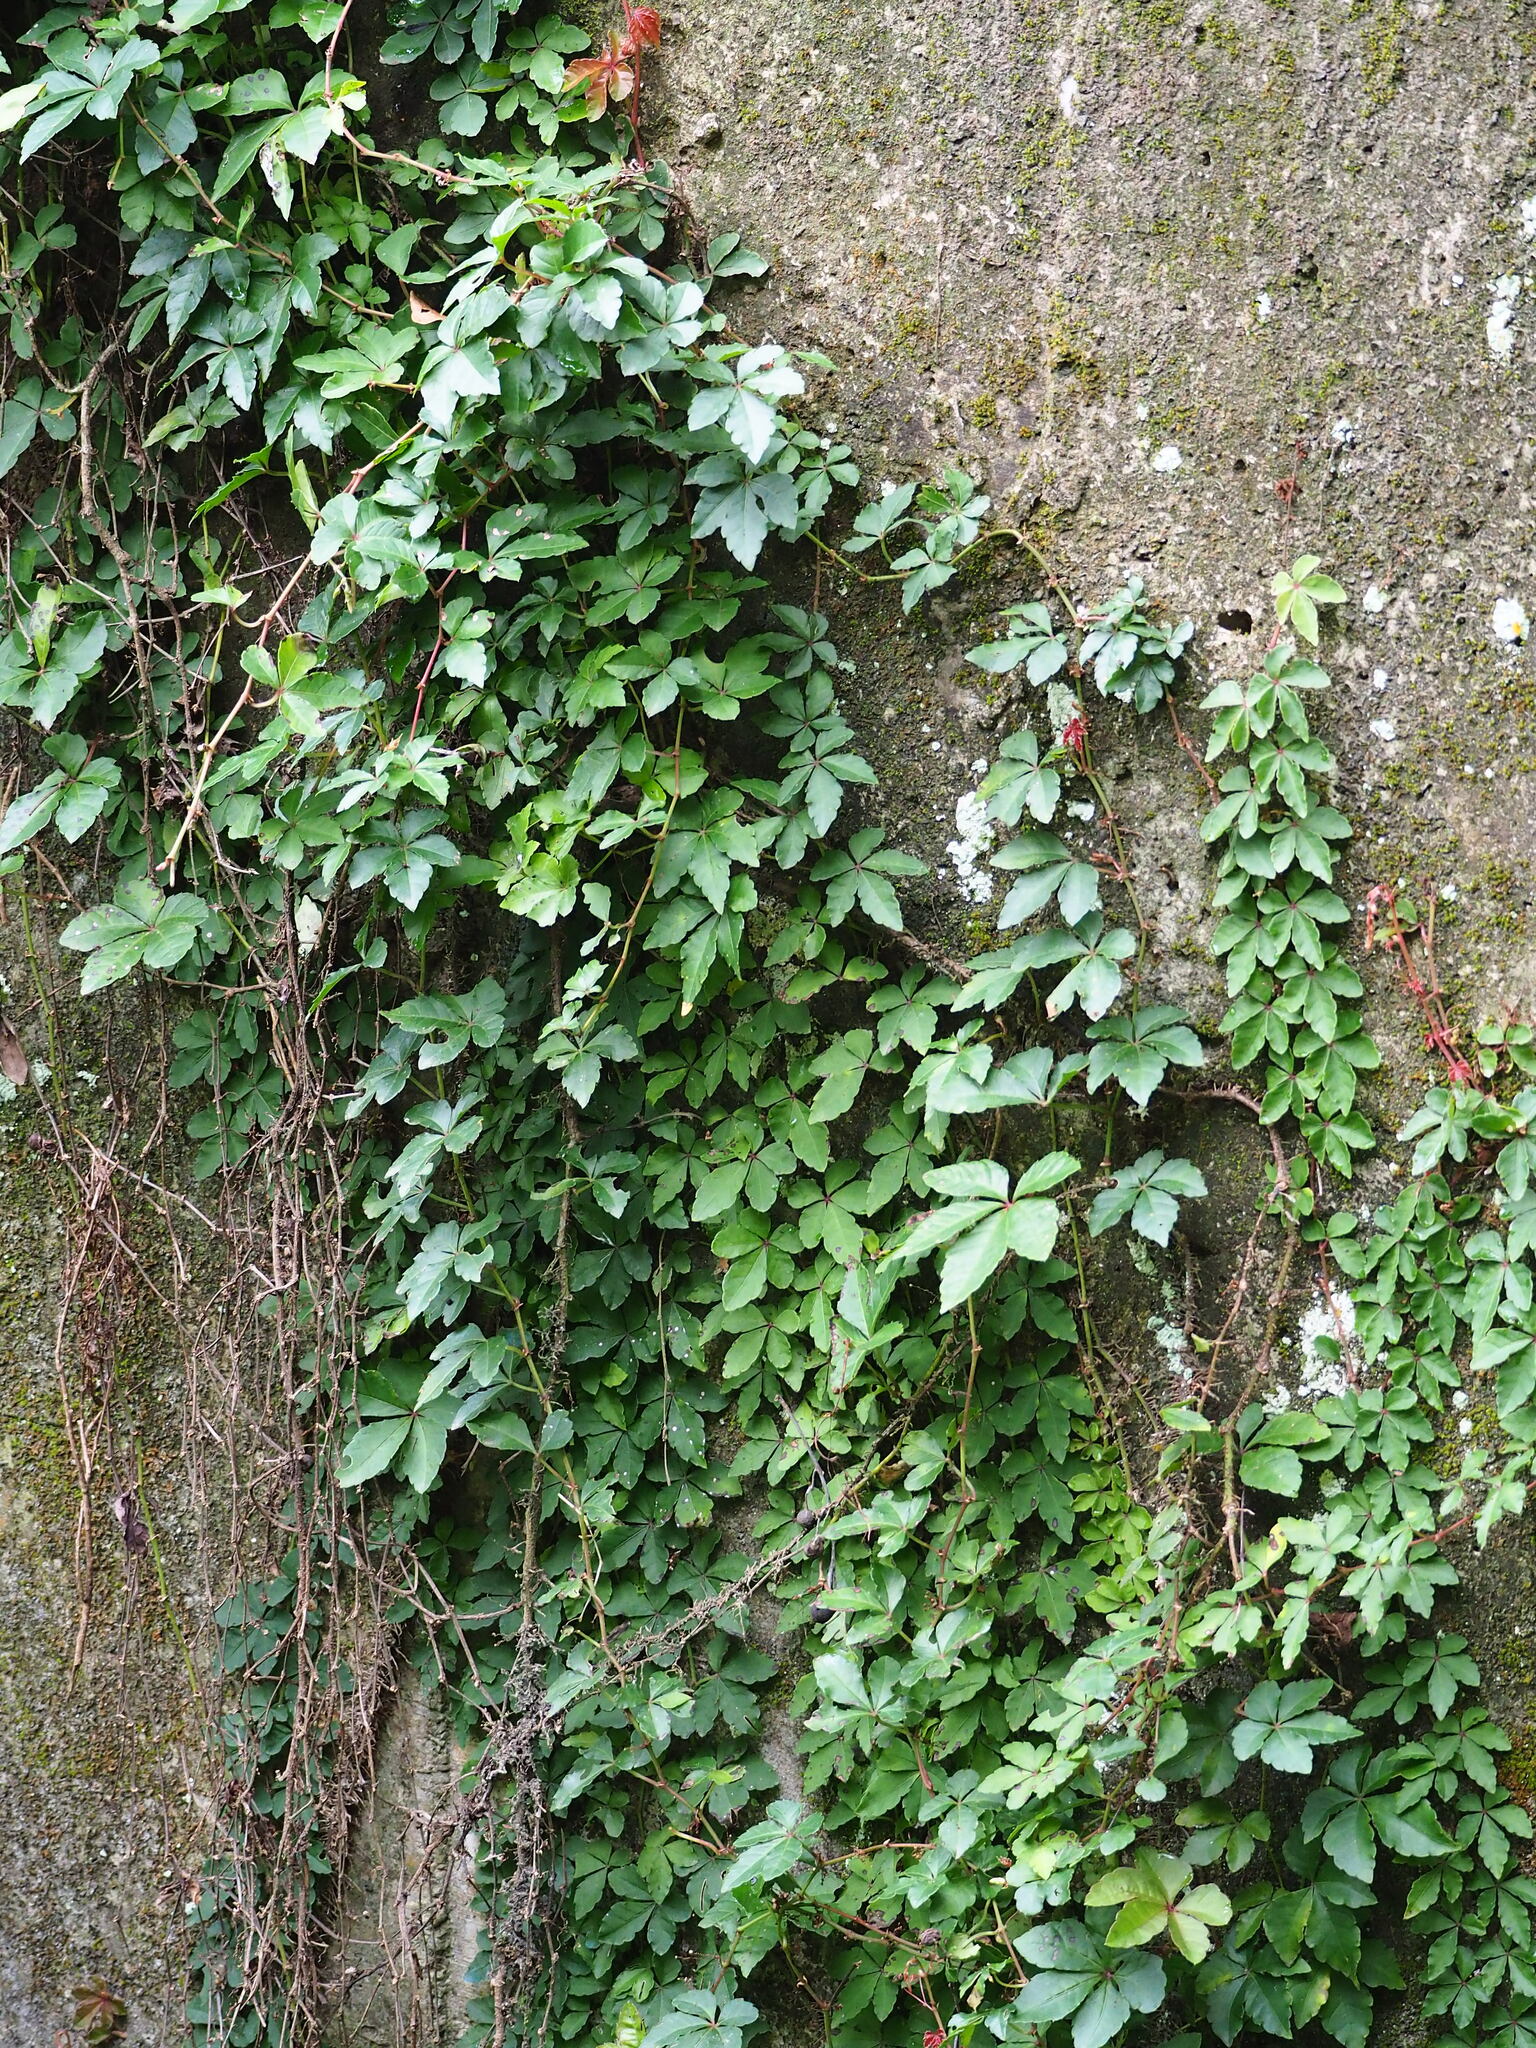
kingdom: Plantae
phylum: Tracheophyta
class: Magnoliopsida
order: Vitales
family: Vitaceae
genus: Tetrastigma
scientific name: Tetrastigma obtectum
